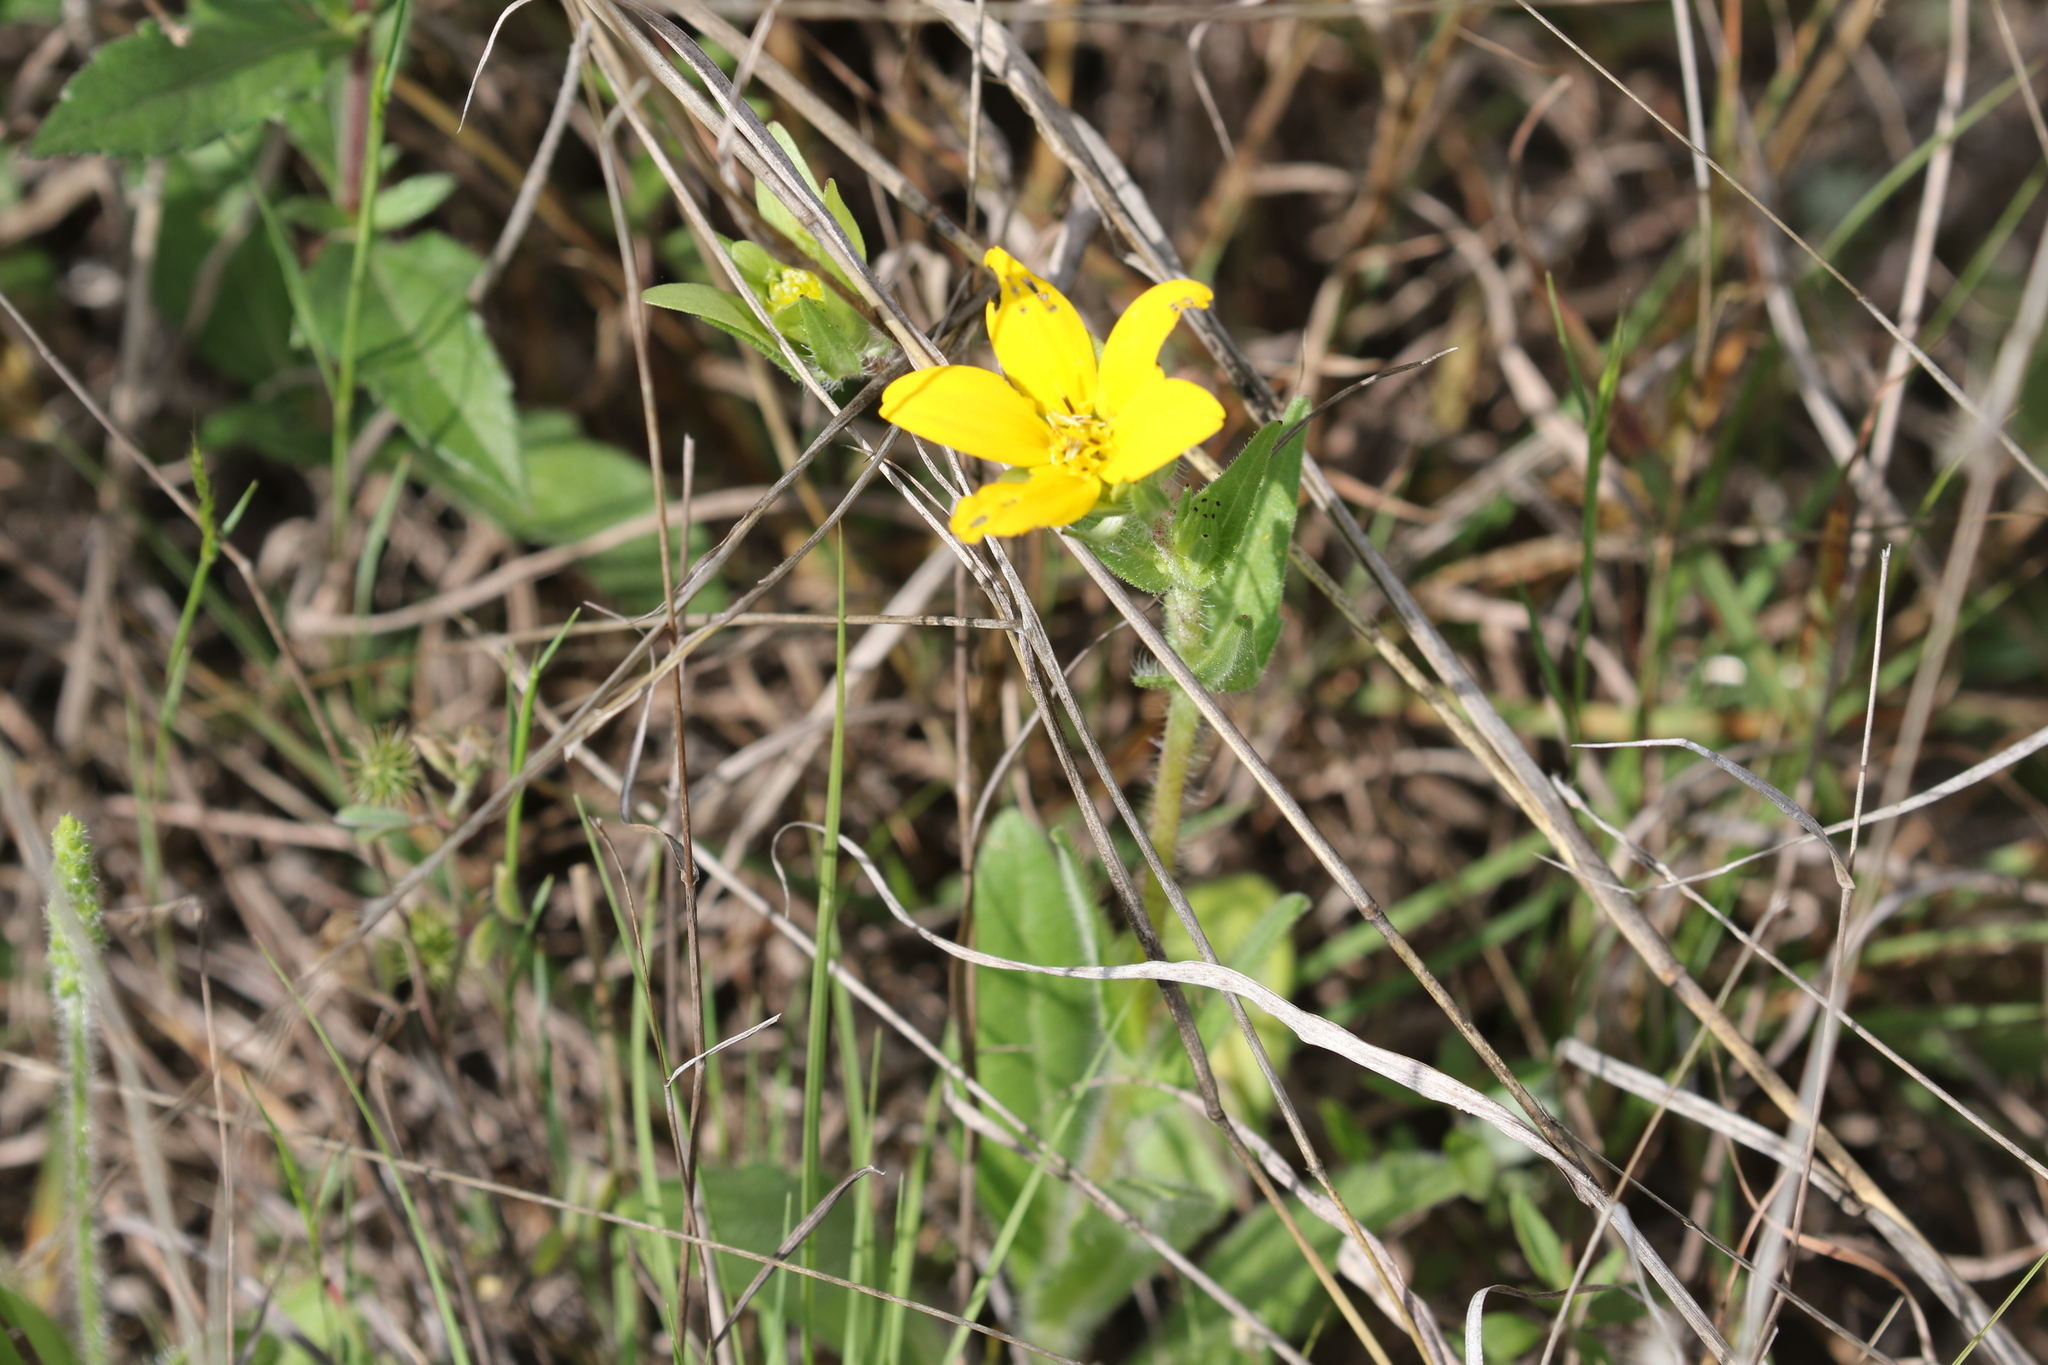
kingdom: Plantae
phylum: Tracheophyta
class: Magnoliopsida
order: Asterales
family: Asteraceae
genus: Lindheimera
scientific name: Lindheimera texana
